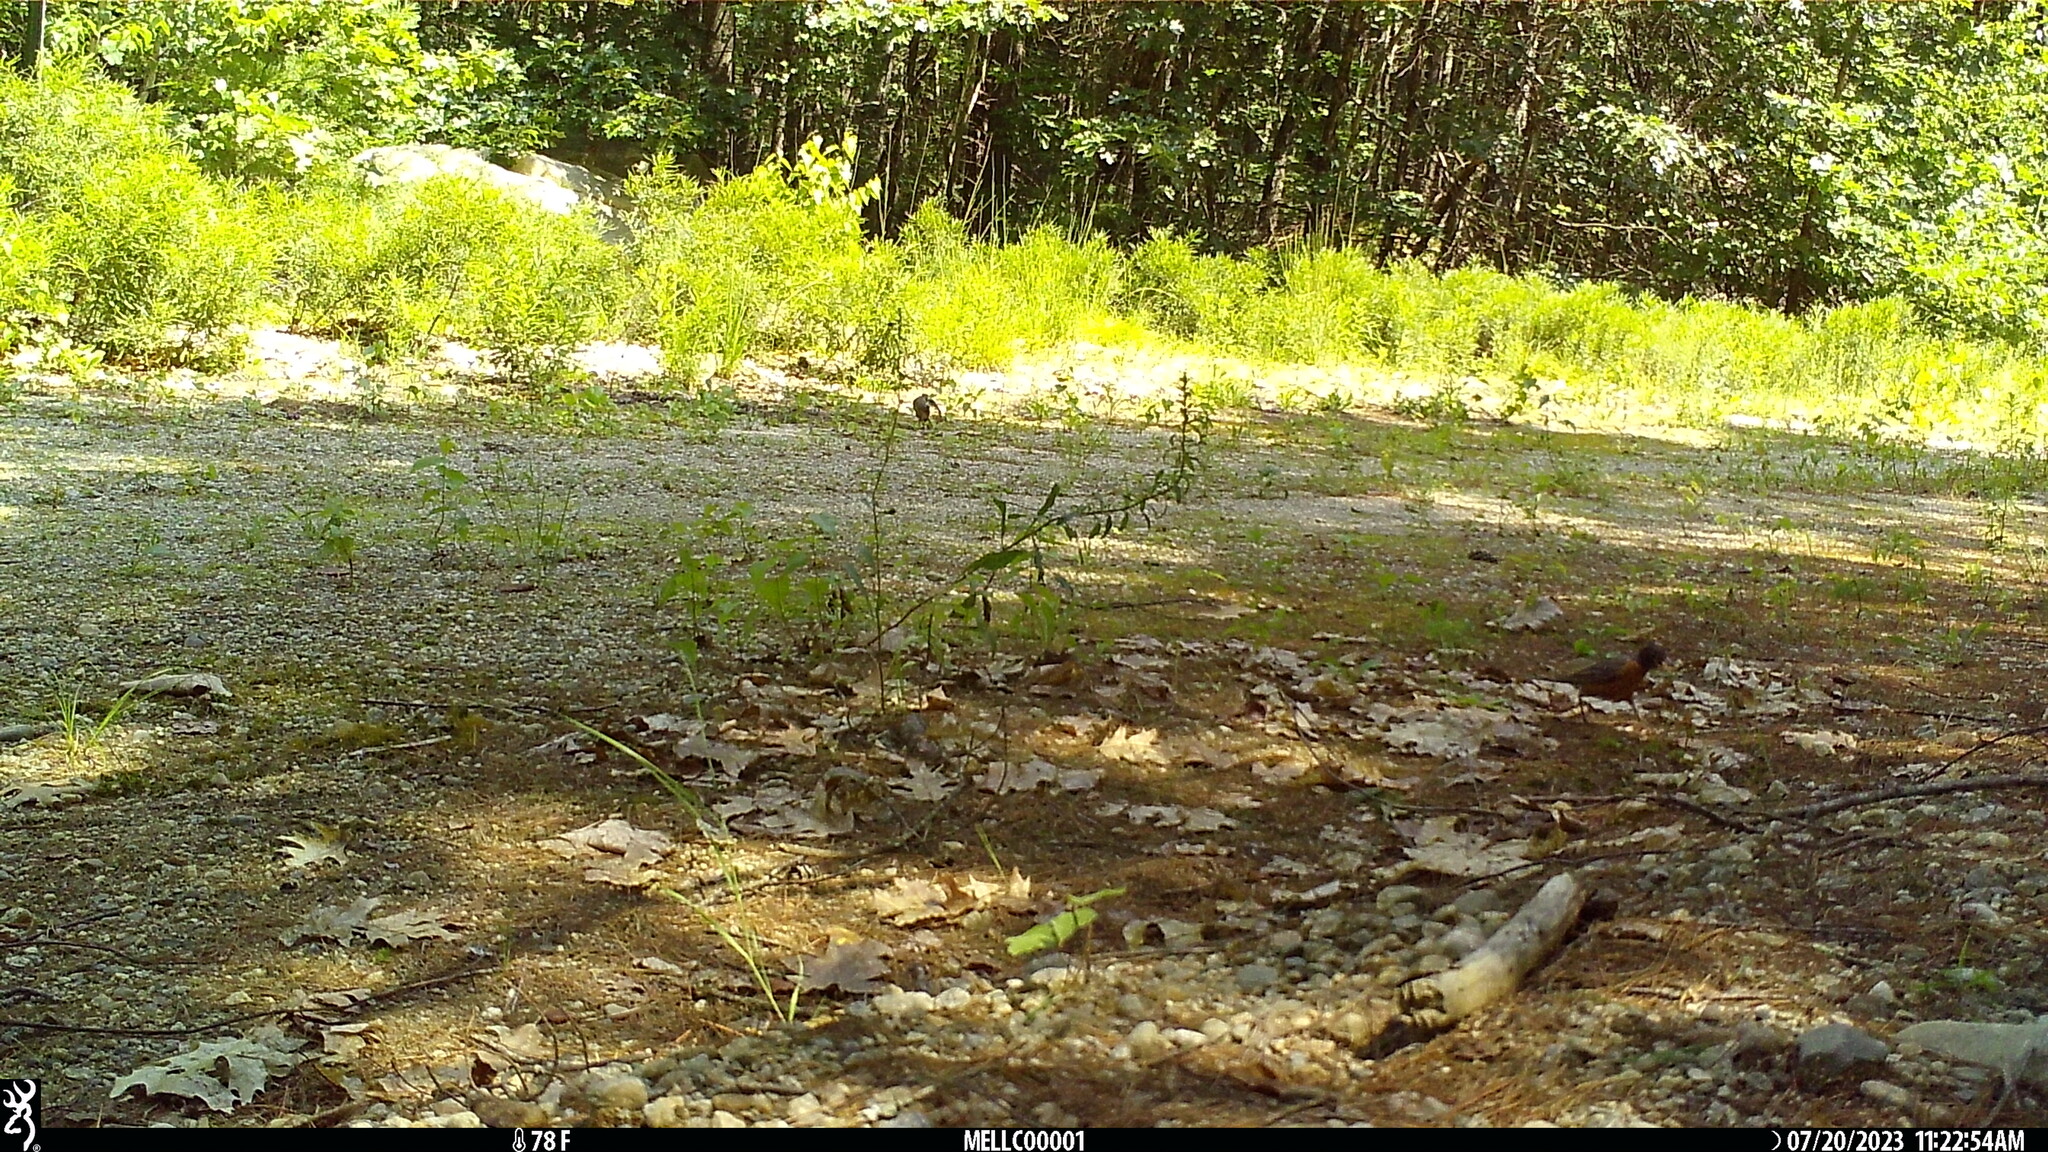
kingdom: Animalia
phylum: Chordata
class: Aves
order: Passeriformes
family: Turdidae
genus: Turdus
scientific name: Turdus migratorius
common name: American robin
